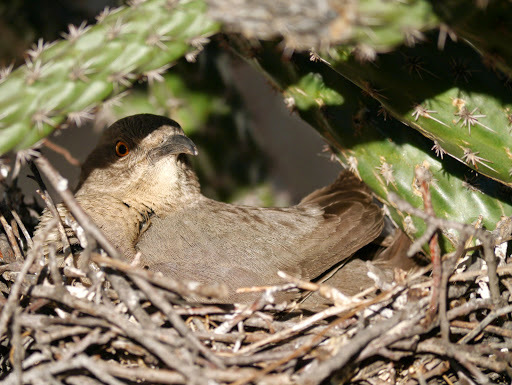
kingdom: Animalia
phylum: Chordata
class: Aves
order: Passeriformes
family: Mimidae
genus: Toxostoma
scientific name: Toxostoma curvirostre
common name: Curve-billed thrasher
